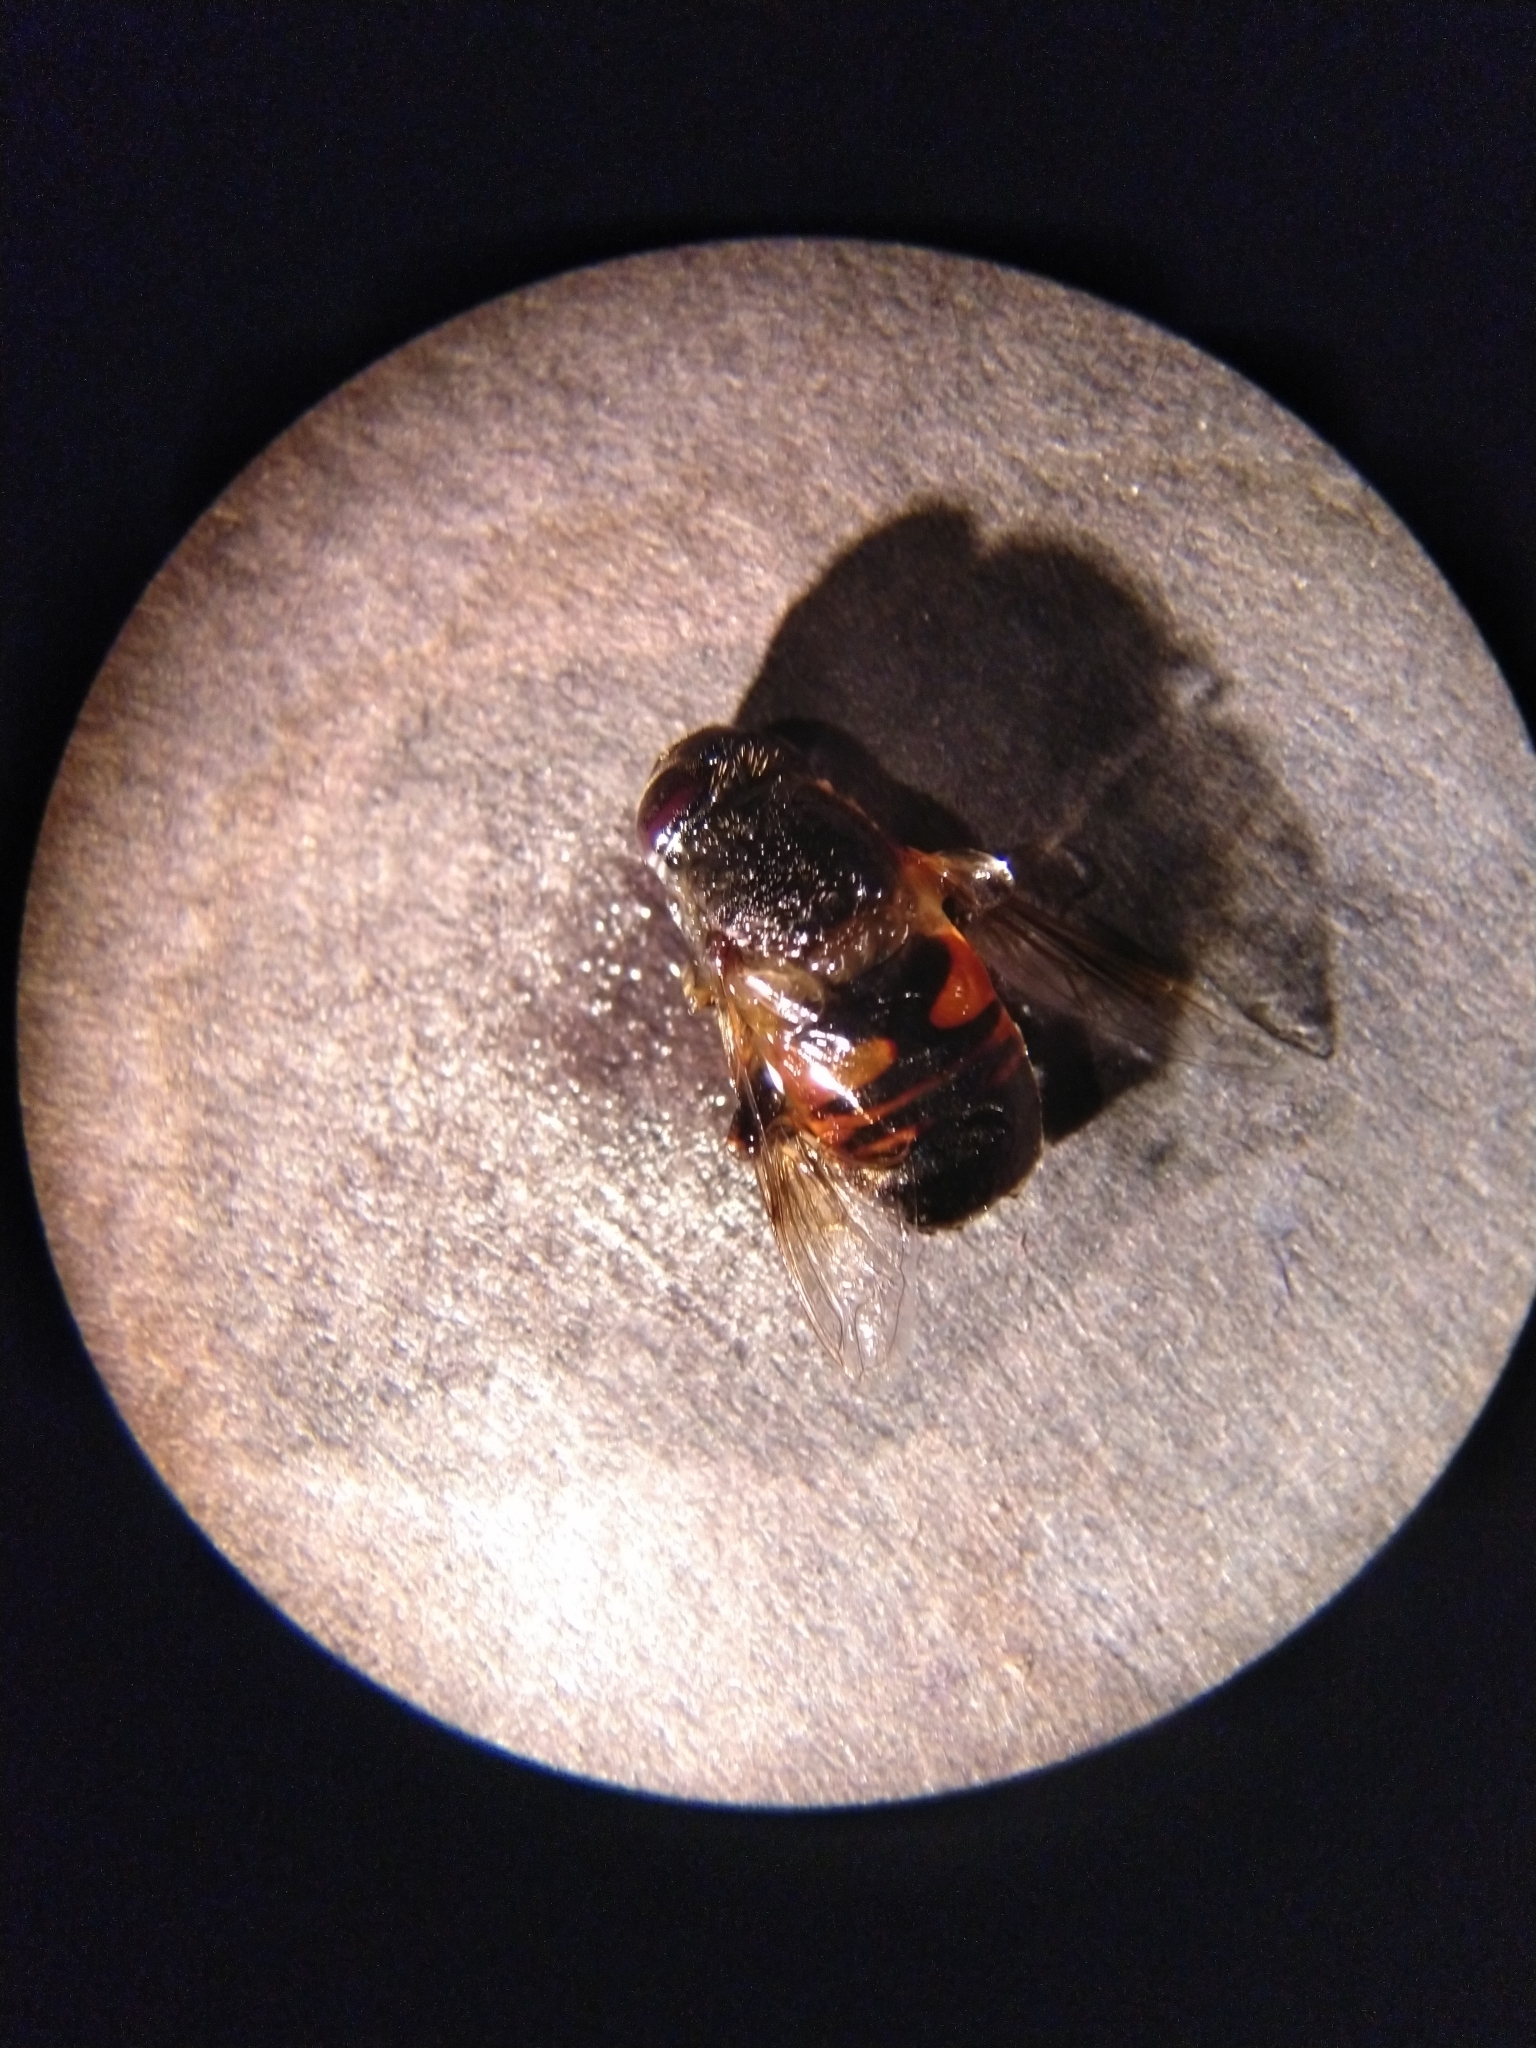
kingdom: Animalia
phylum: Arthropoda
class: Insecta
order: Diptera
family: Syrphidae
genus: Eristalis
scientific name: Eristalis tenax
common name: Drone fly
